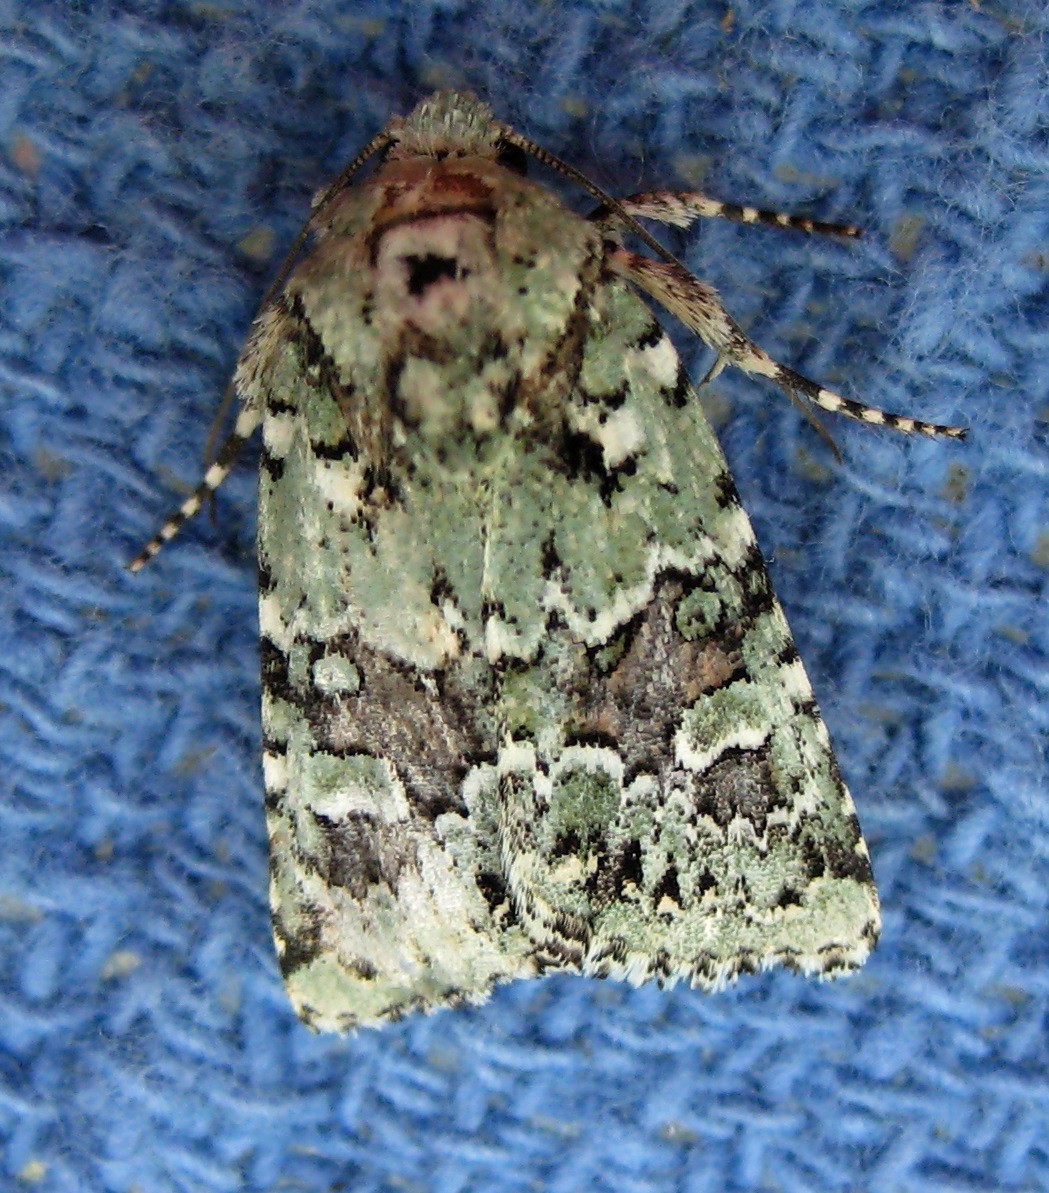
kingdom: Animalia
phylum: Arthropoda
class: Insecta
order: Lepidoptera
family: Noctuidae
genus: Lacinipolia
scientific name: Lacinipolia laudabilis
